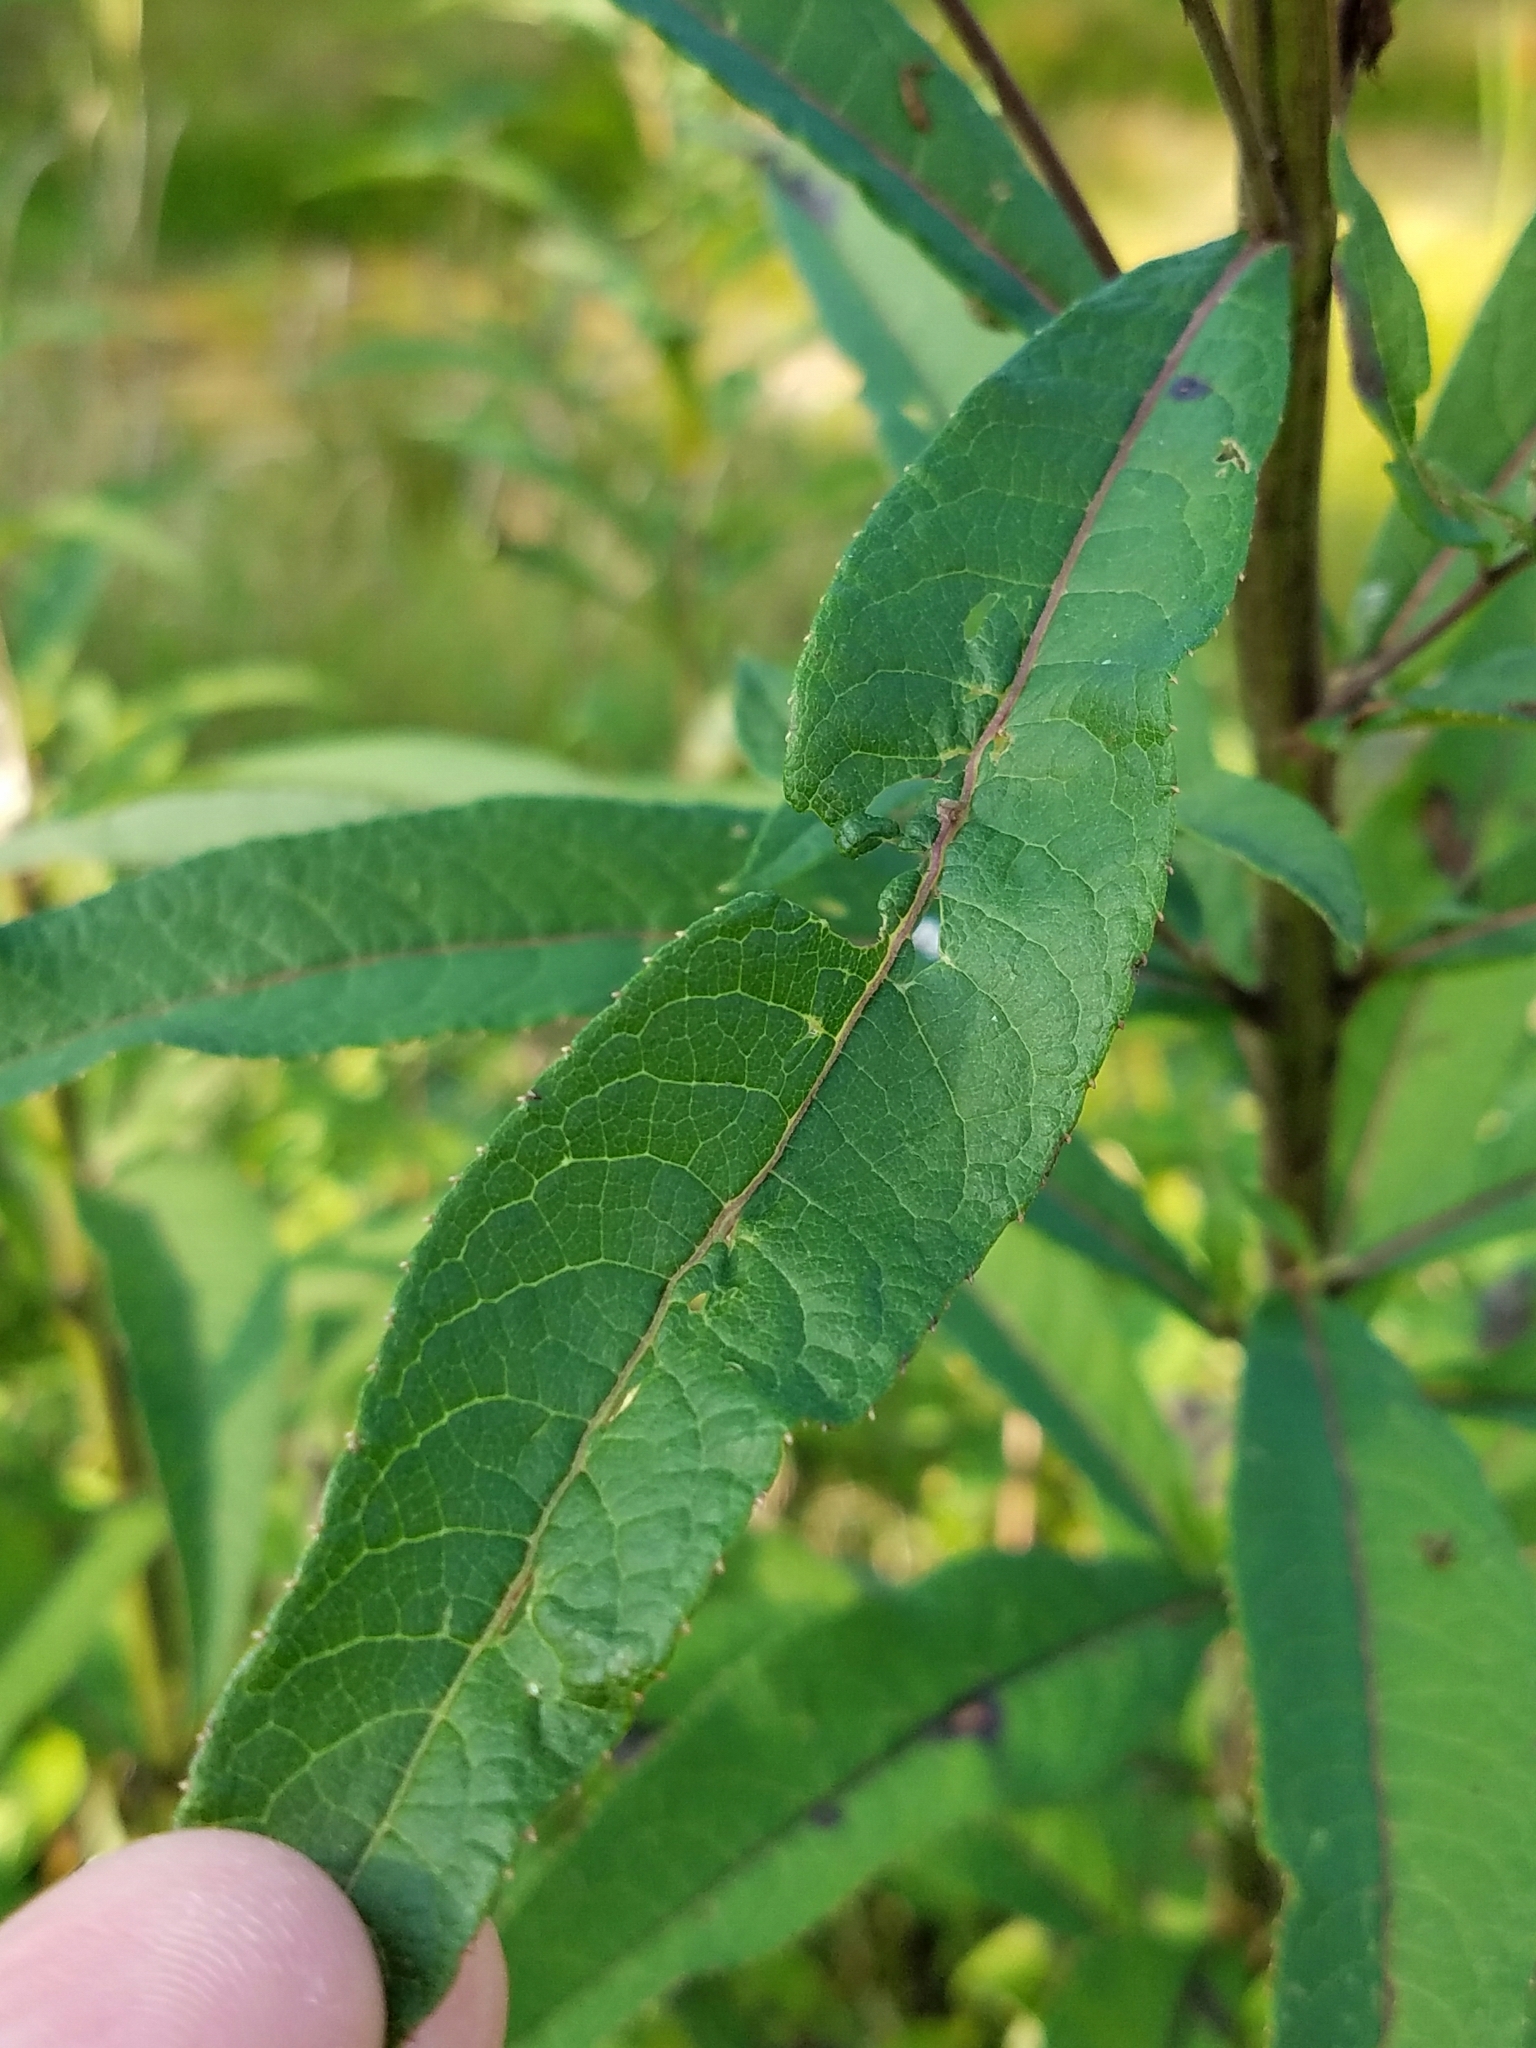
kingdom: Plantae
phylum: Tracheophyta
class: Magnoliopsida
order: Asterales
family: Asteraceae
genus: Vernonia
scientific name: Vernonia noveboracensis
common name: New york ironweed
